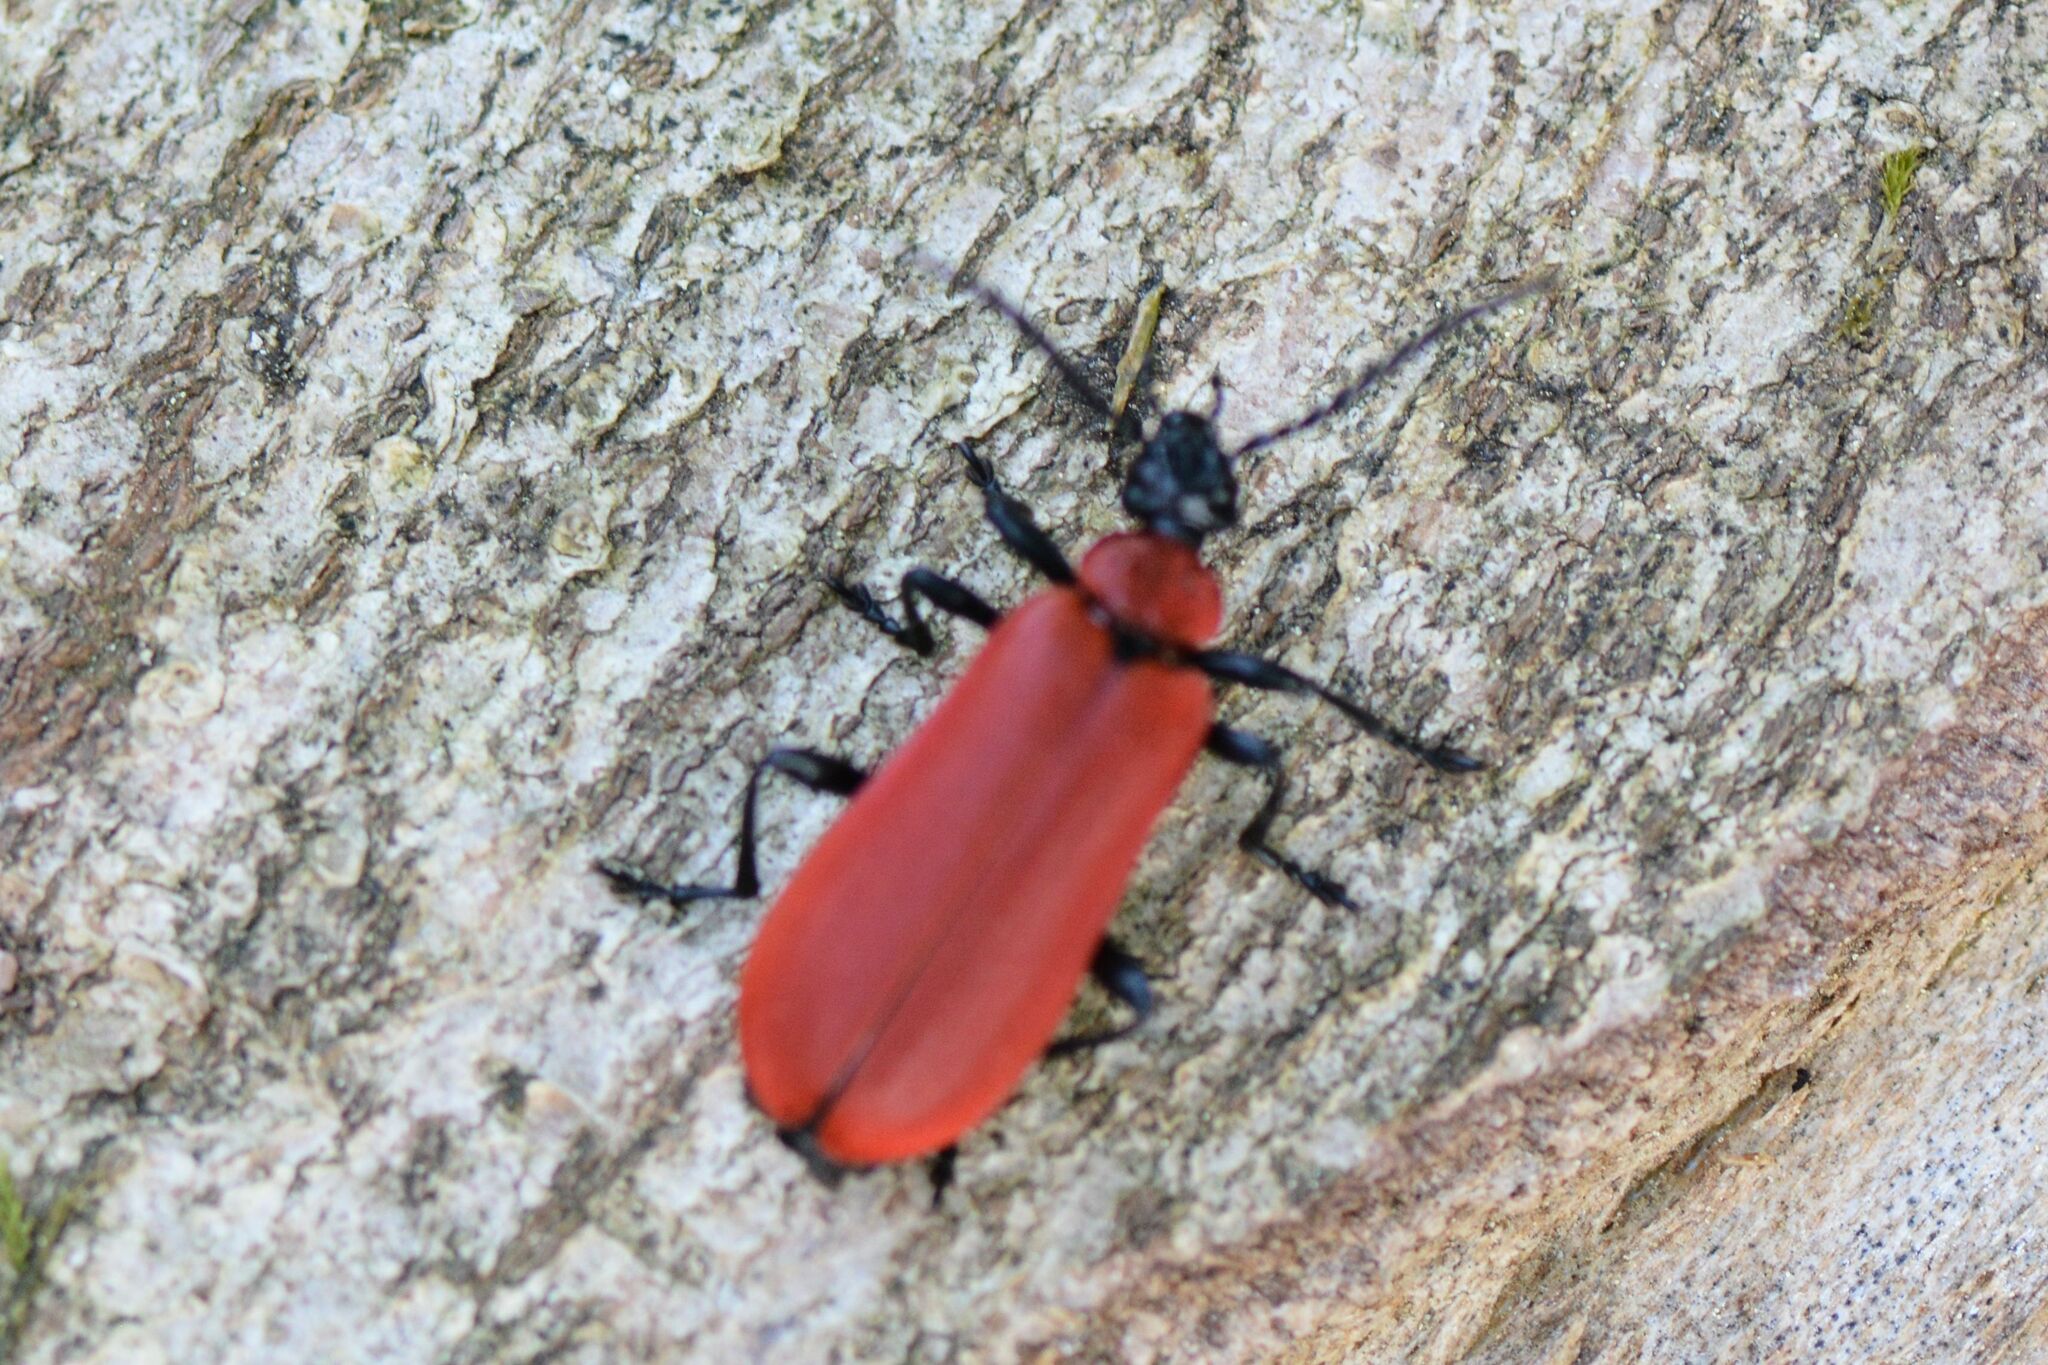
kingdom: Animalia
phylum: Arthropoda
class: Insecta
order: Coleoptera
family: Pyrochroidae
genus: Pyrochroa
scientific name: Pyrochroa coccinea
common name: Black-headed cardinal beetle
